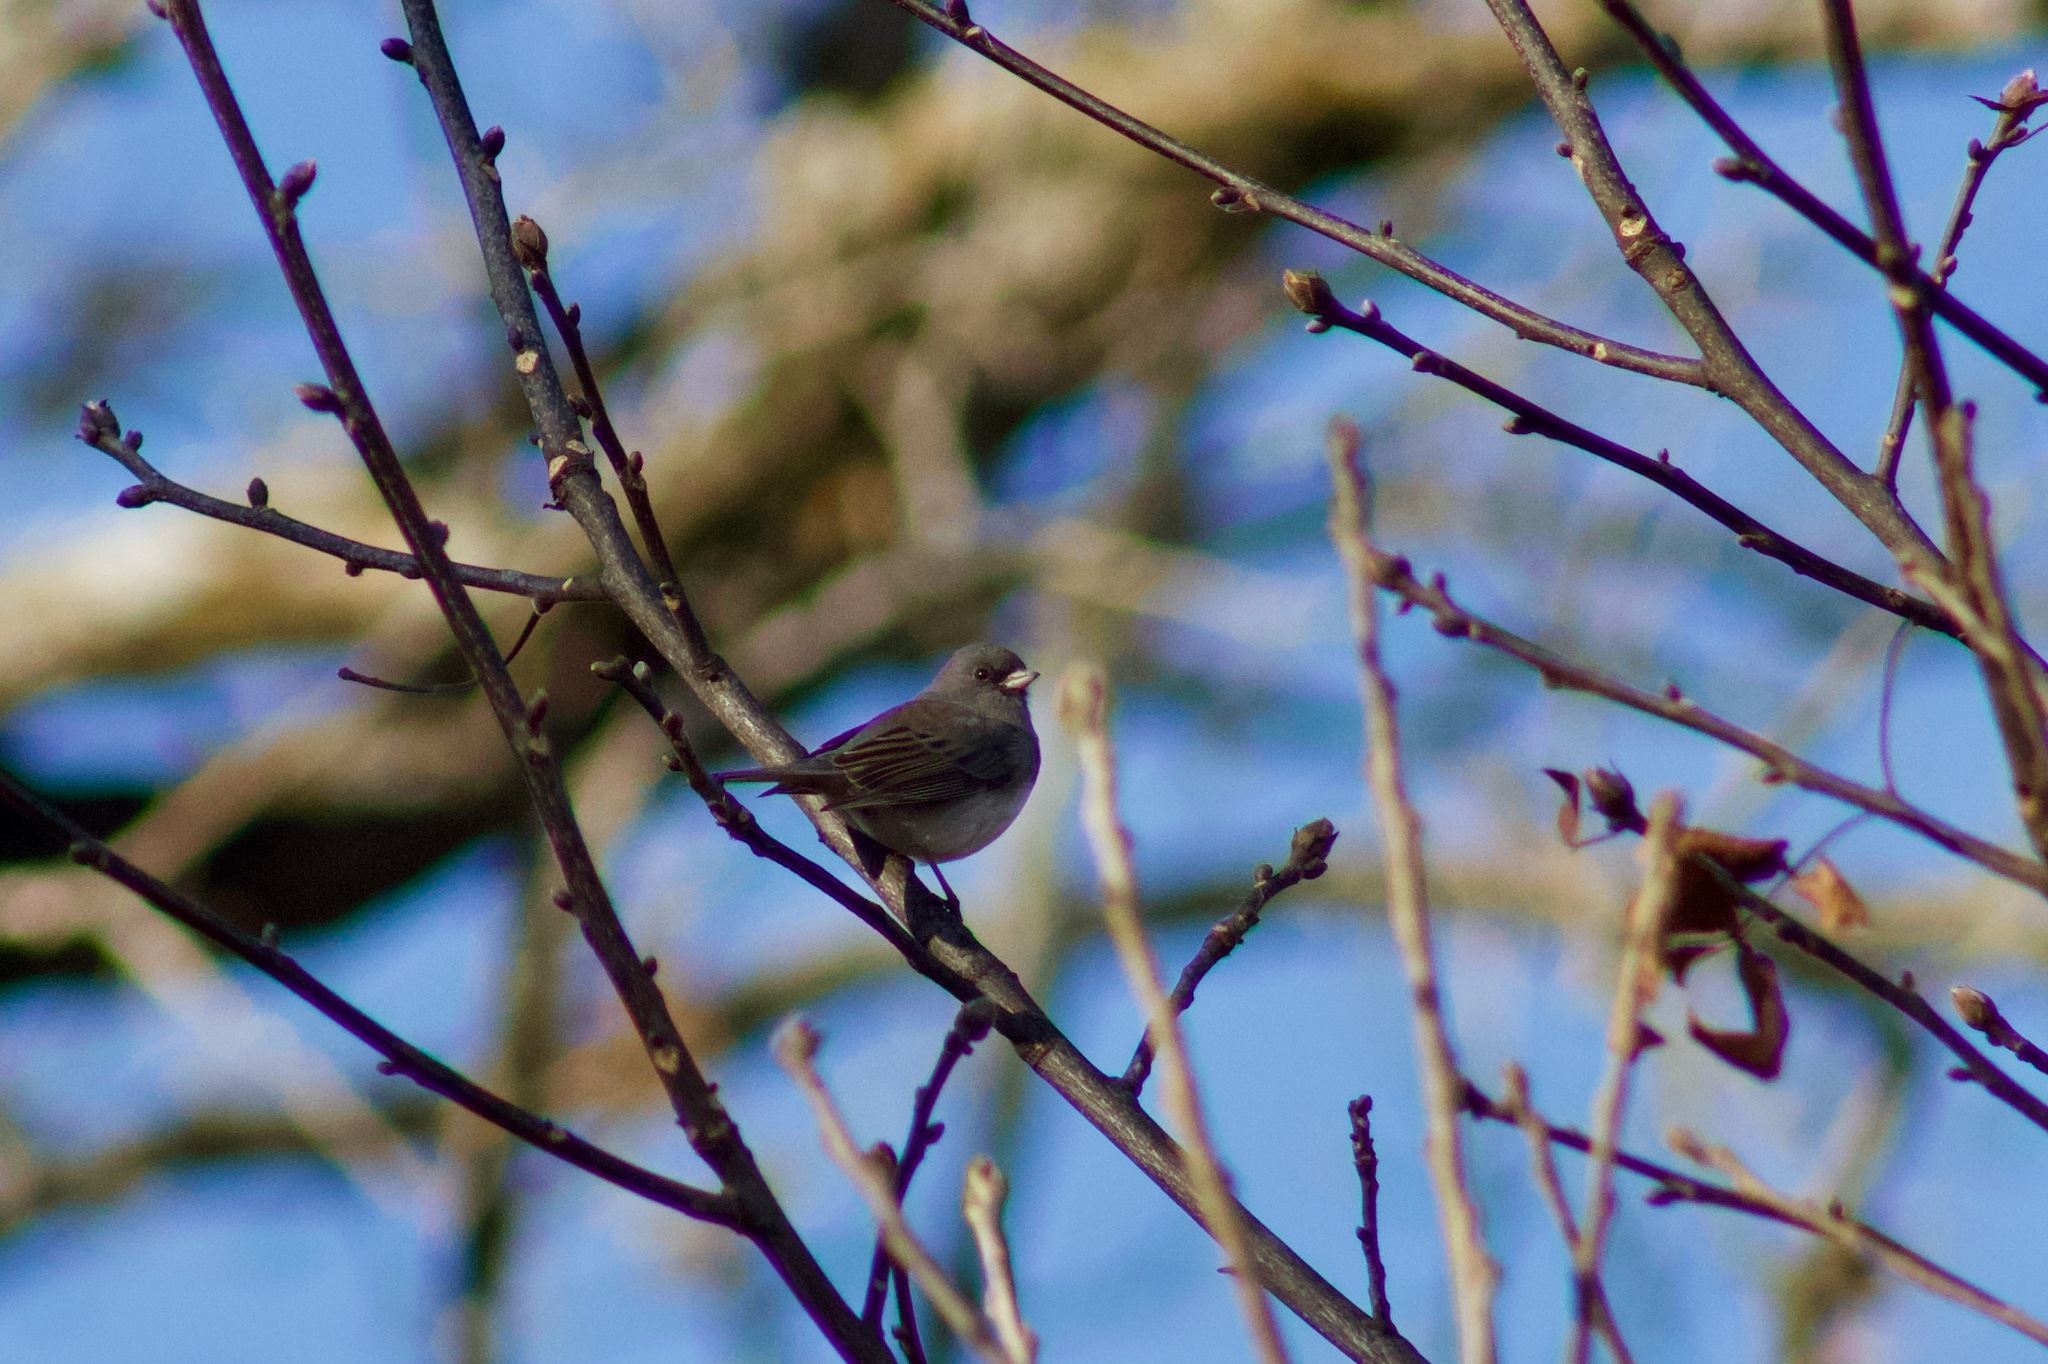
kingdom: Animalia
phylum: Chordata
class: Aves
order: Passeriformes
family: Passerellidae
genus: Junco
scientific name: Junco hyemalis
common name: Dark-eyed junco
